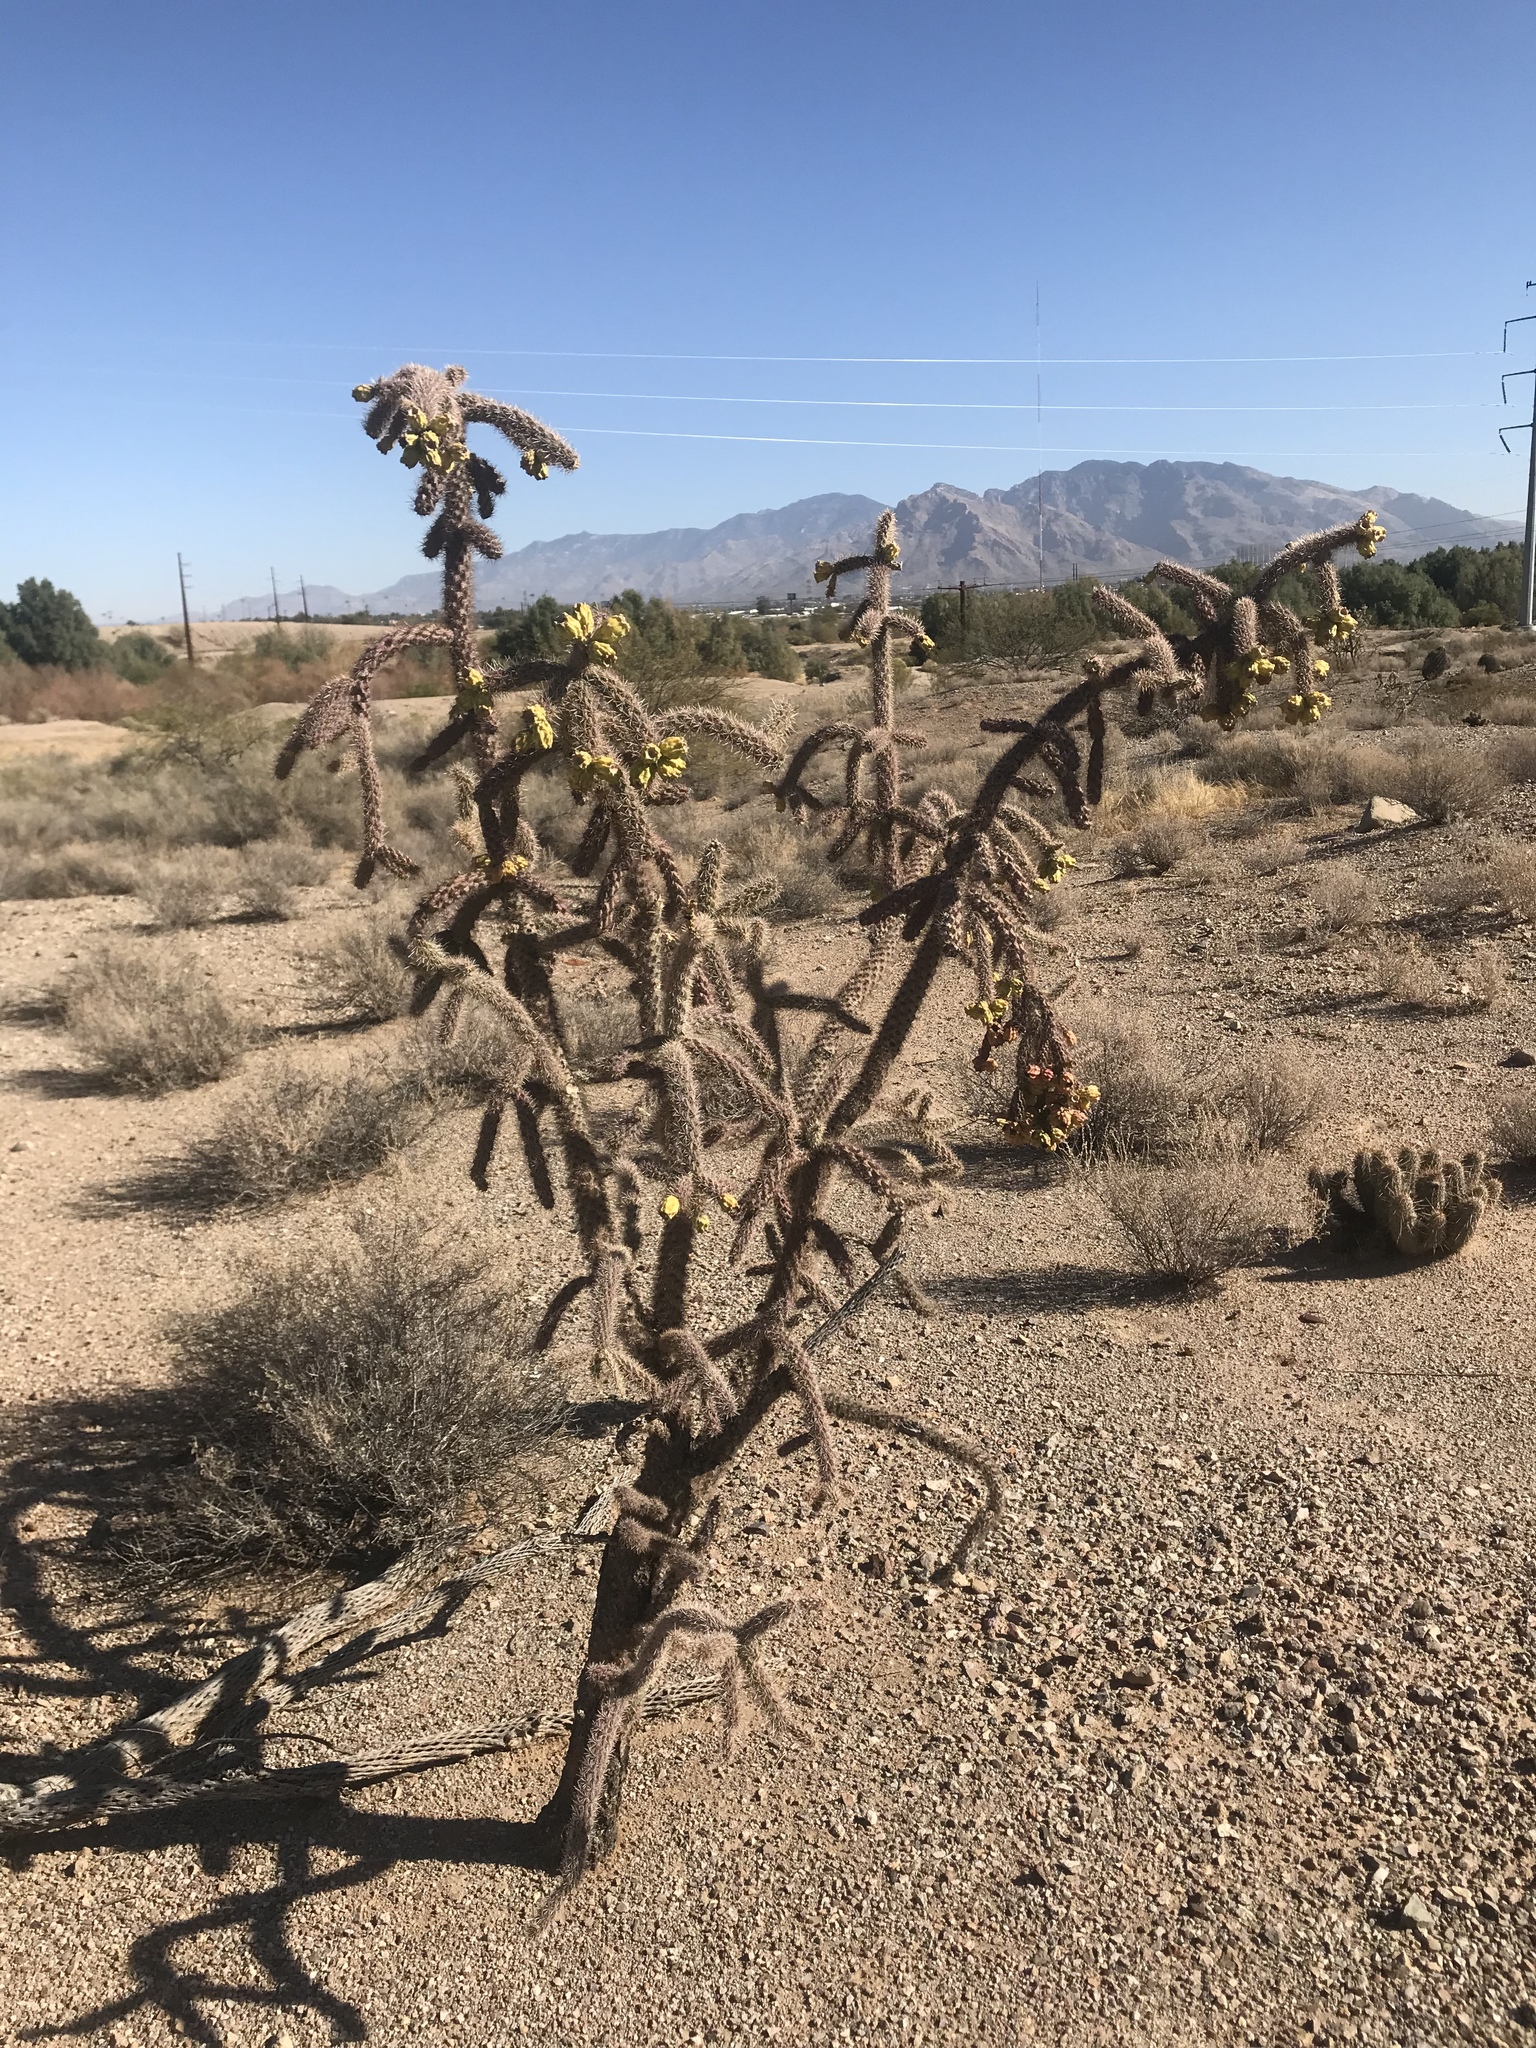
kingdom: Plantae
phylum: Tracheophyta
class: Magnoliopsida
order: Caryophyllales
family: Cactaceae
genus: Cylindropuntia
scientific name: Cylindropuntia imbricata
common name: Candelabrum cactus
